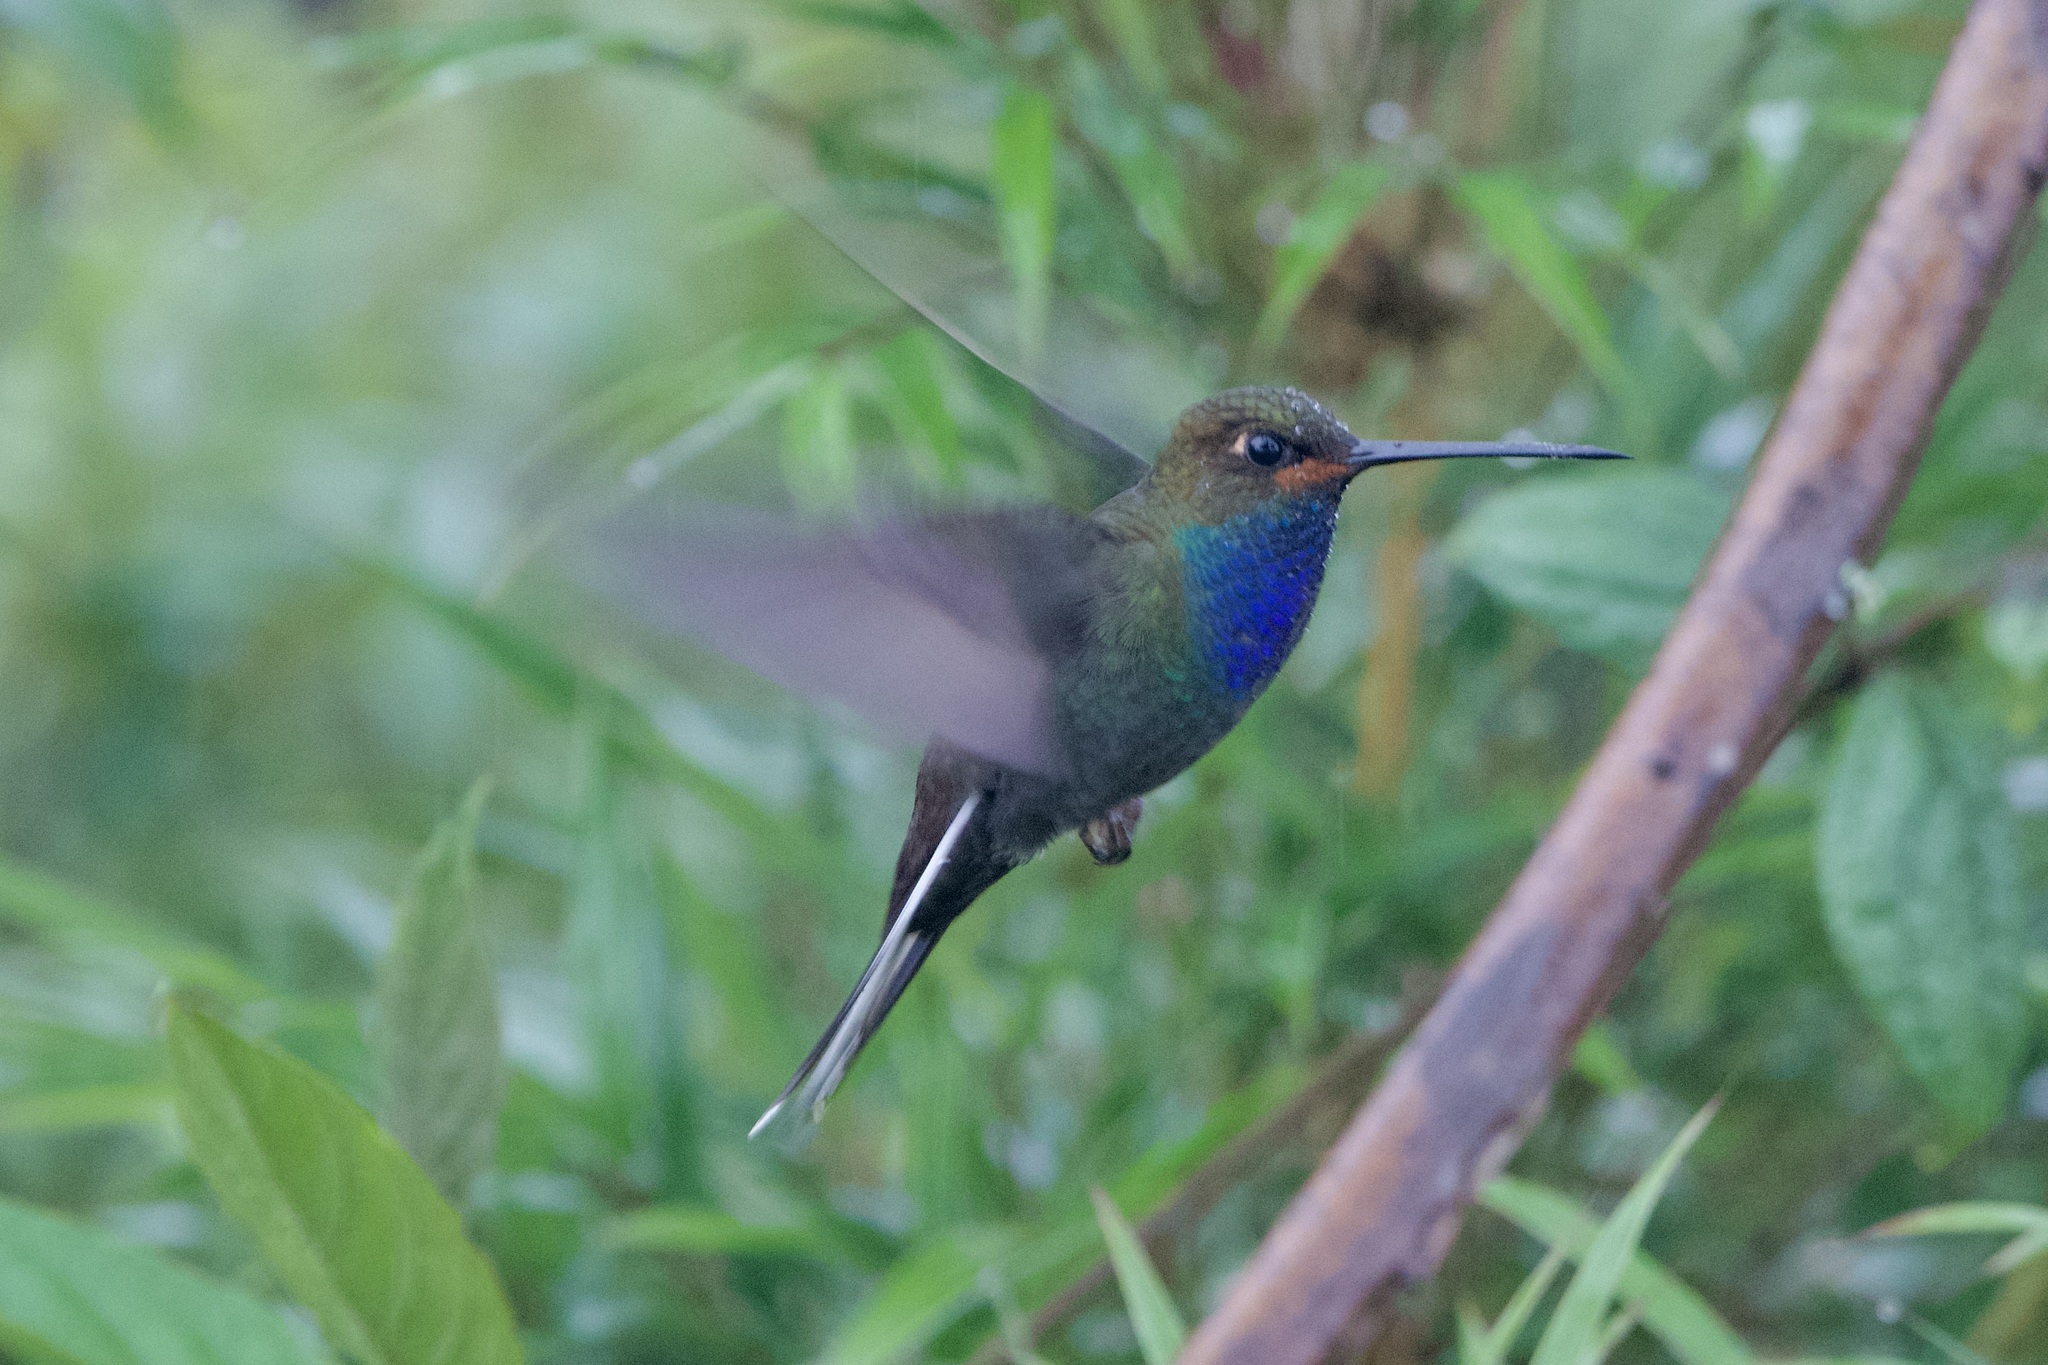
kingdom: Animalia
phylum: Chordata
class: Aves
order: Apodiformes
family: Trochilidae
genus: Urochroa
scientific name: Urochroa bougueri
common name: White-tailed hillstar
